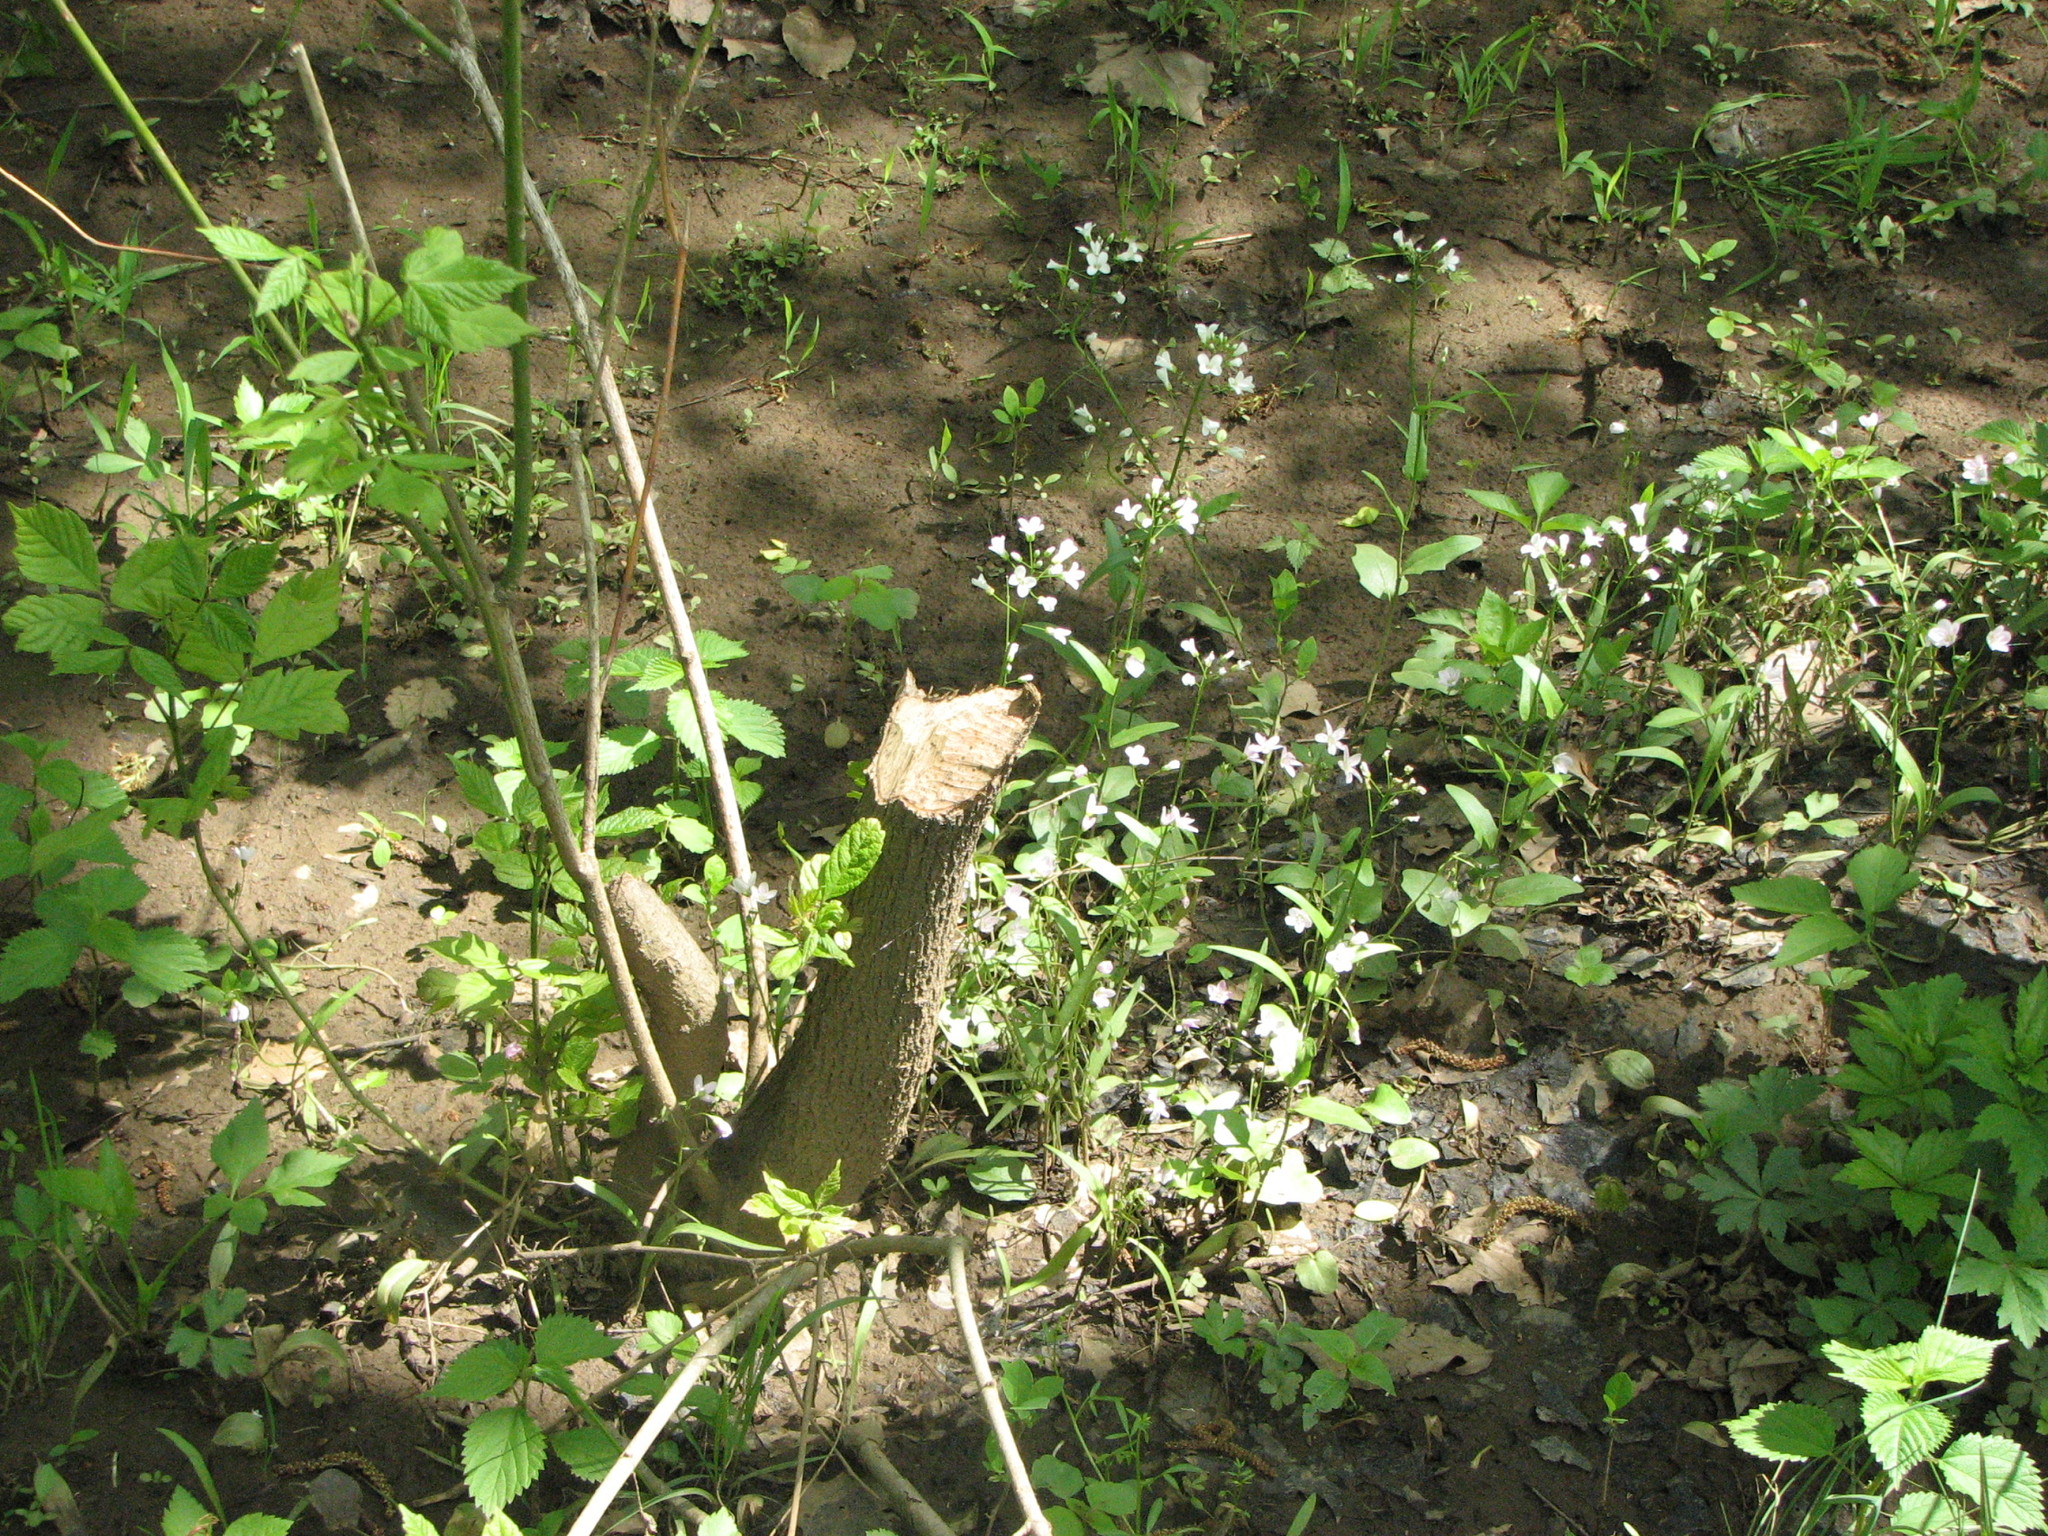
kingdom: Animalia
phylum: Chordata
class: Mammalia
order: Rodentia
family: Castoridae
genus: Castor
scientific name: Castor canadensis
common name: American beaver
